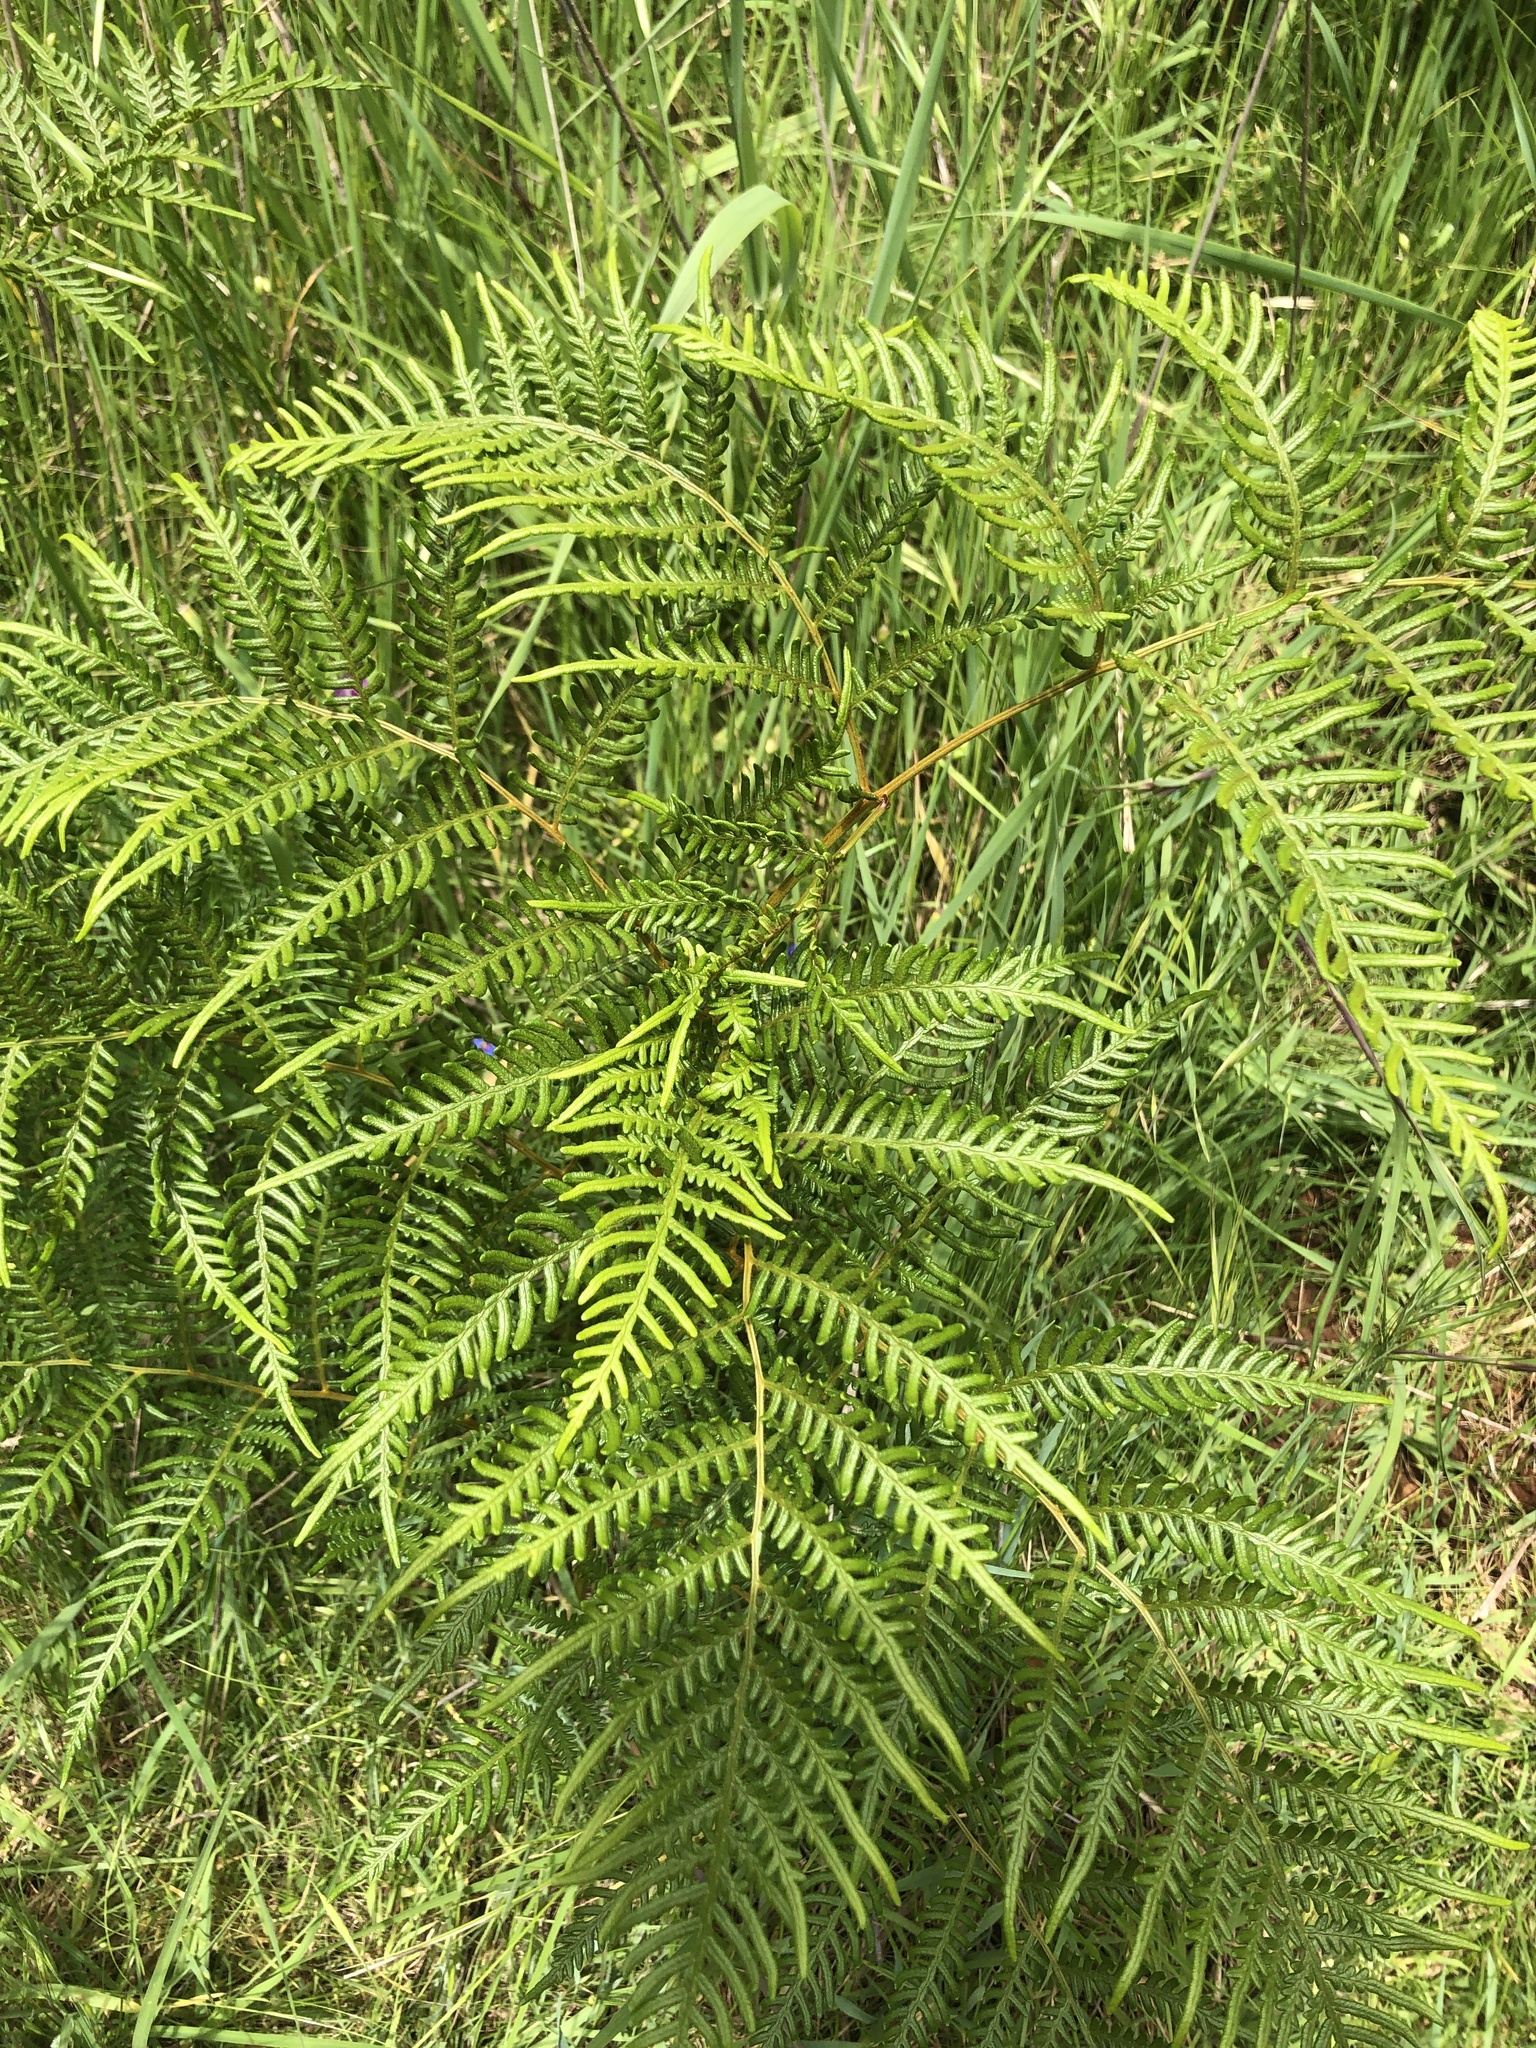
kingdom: Plantae
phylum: Tracheophyta
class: Polypodiopsida
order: Polypodiales
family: Dennstaedtiaceae
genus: Pteridium
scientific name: Pteridium esculentum
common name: Bracken fern
